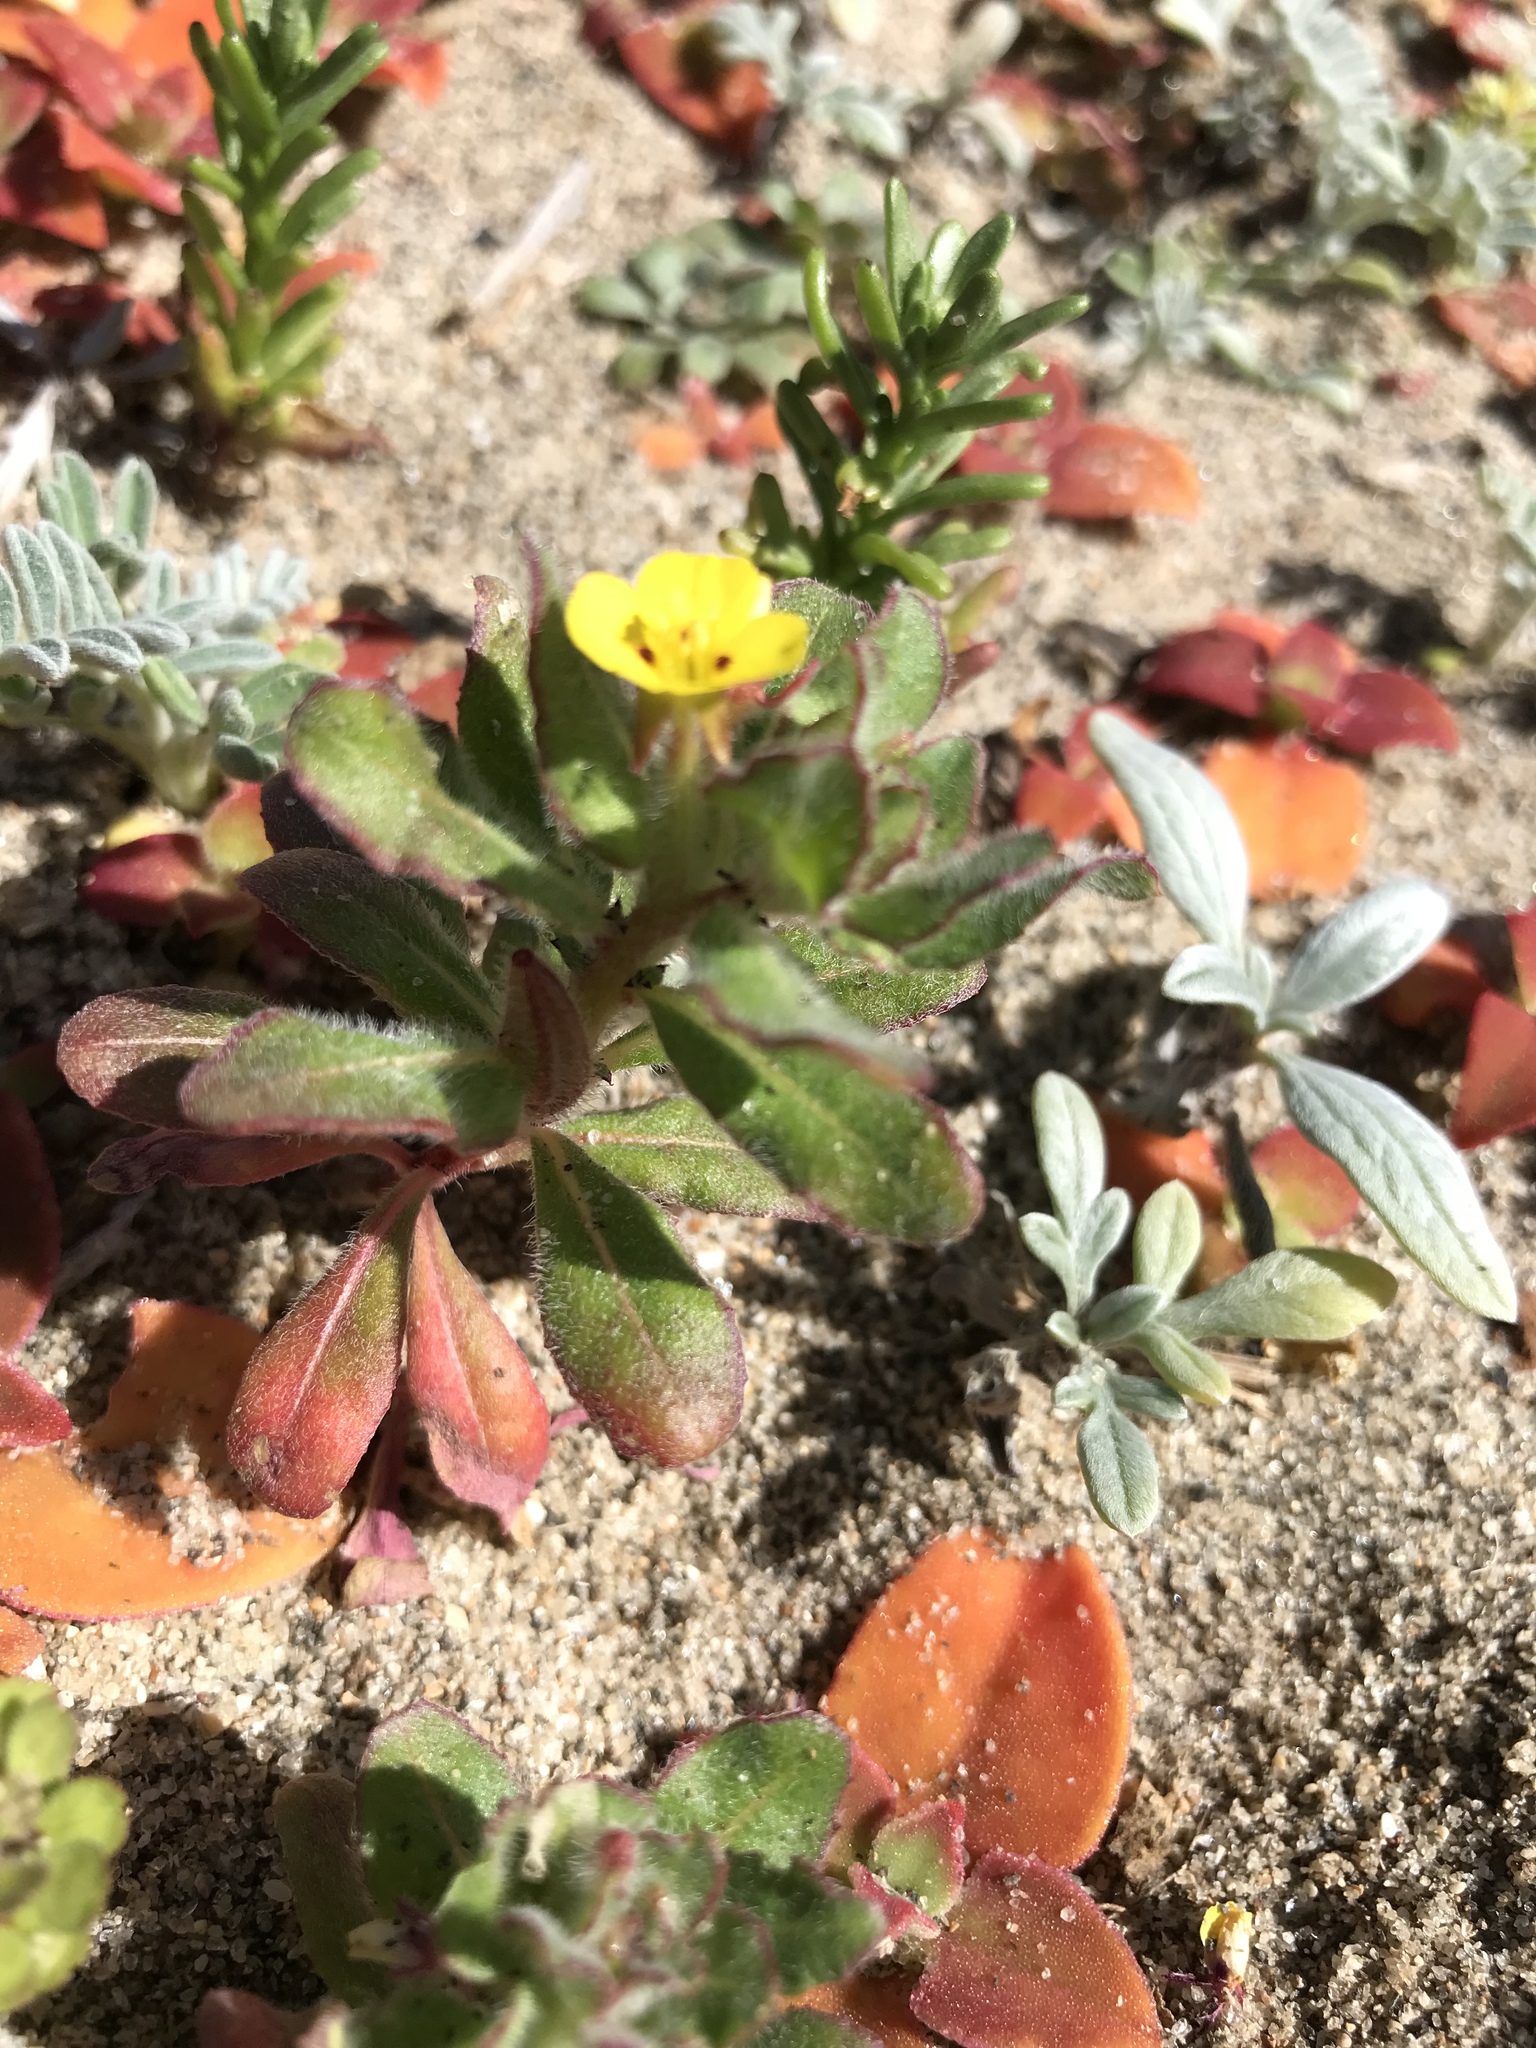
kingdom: Plantae
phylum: Tracheophyta
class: Magnoliopsida
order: Myrtales
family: Onagraceae
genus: Camissoniopsis
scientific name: Camissoniopsis guadalupensis
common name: Guadalupe suncup
